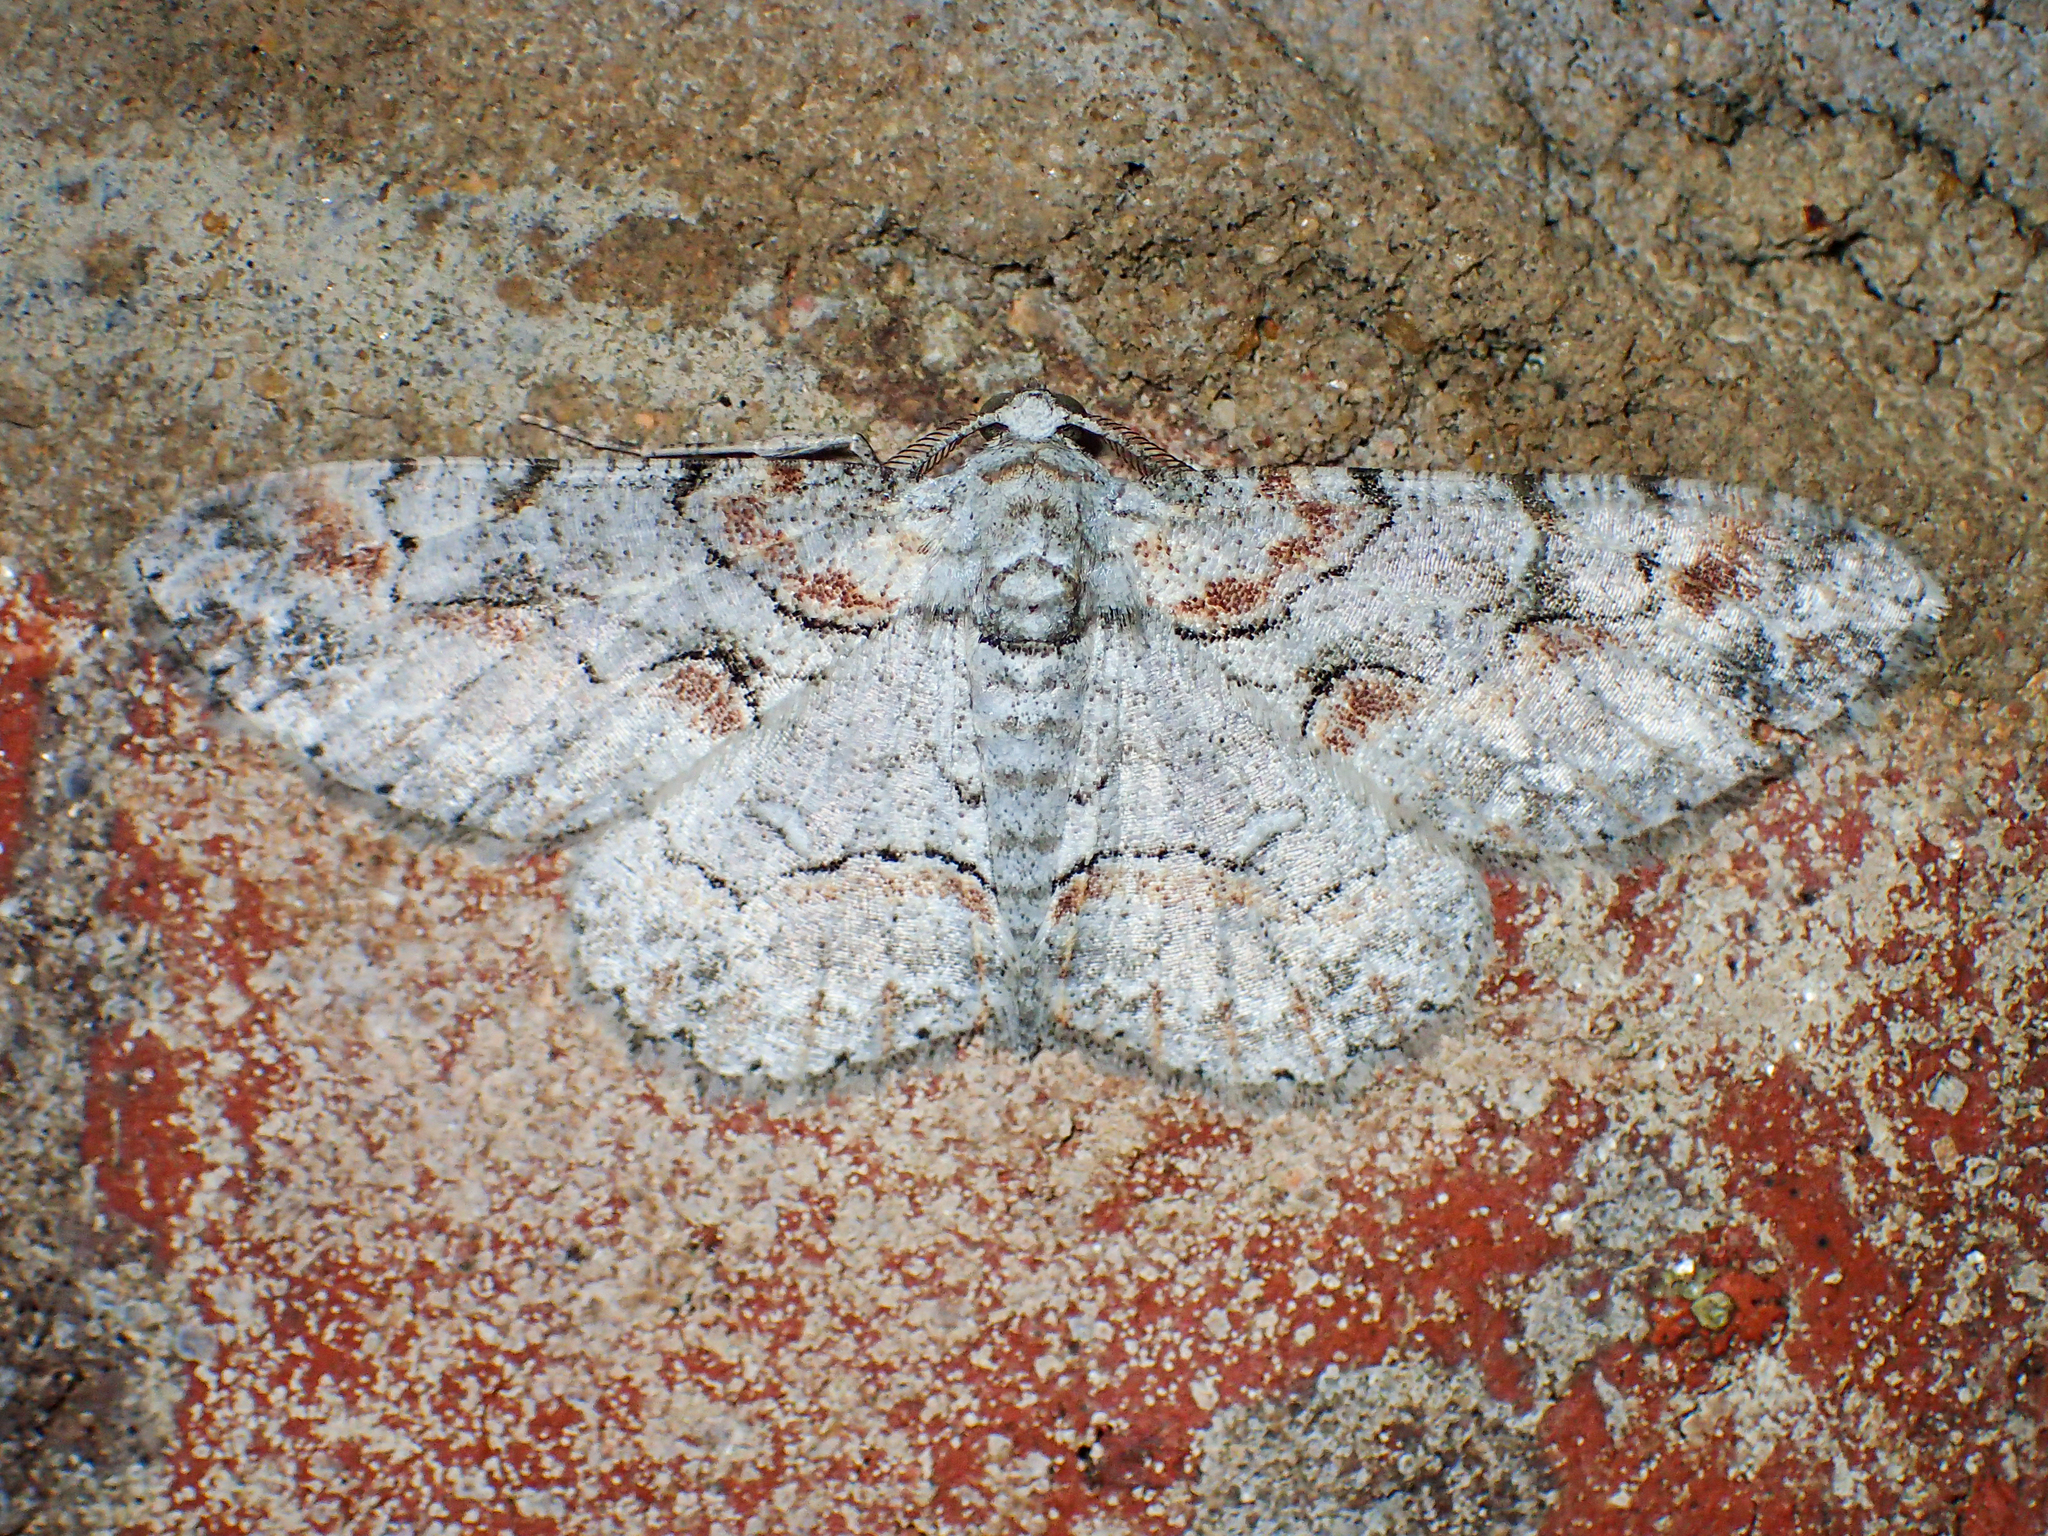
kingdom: Animalia
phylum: Arthropoda
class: Insecta
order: Lepidoptera
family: Geometridae
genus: Iridopsis
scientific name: Iridopsis defectaria
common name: Brown-shaded gray
